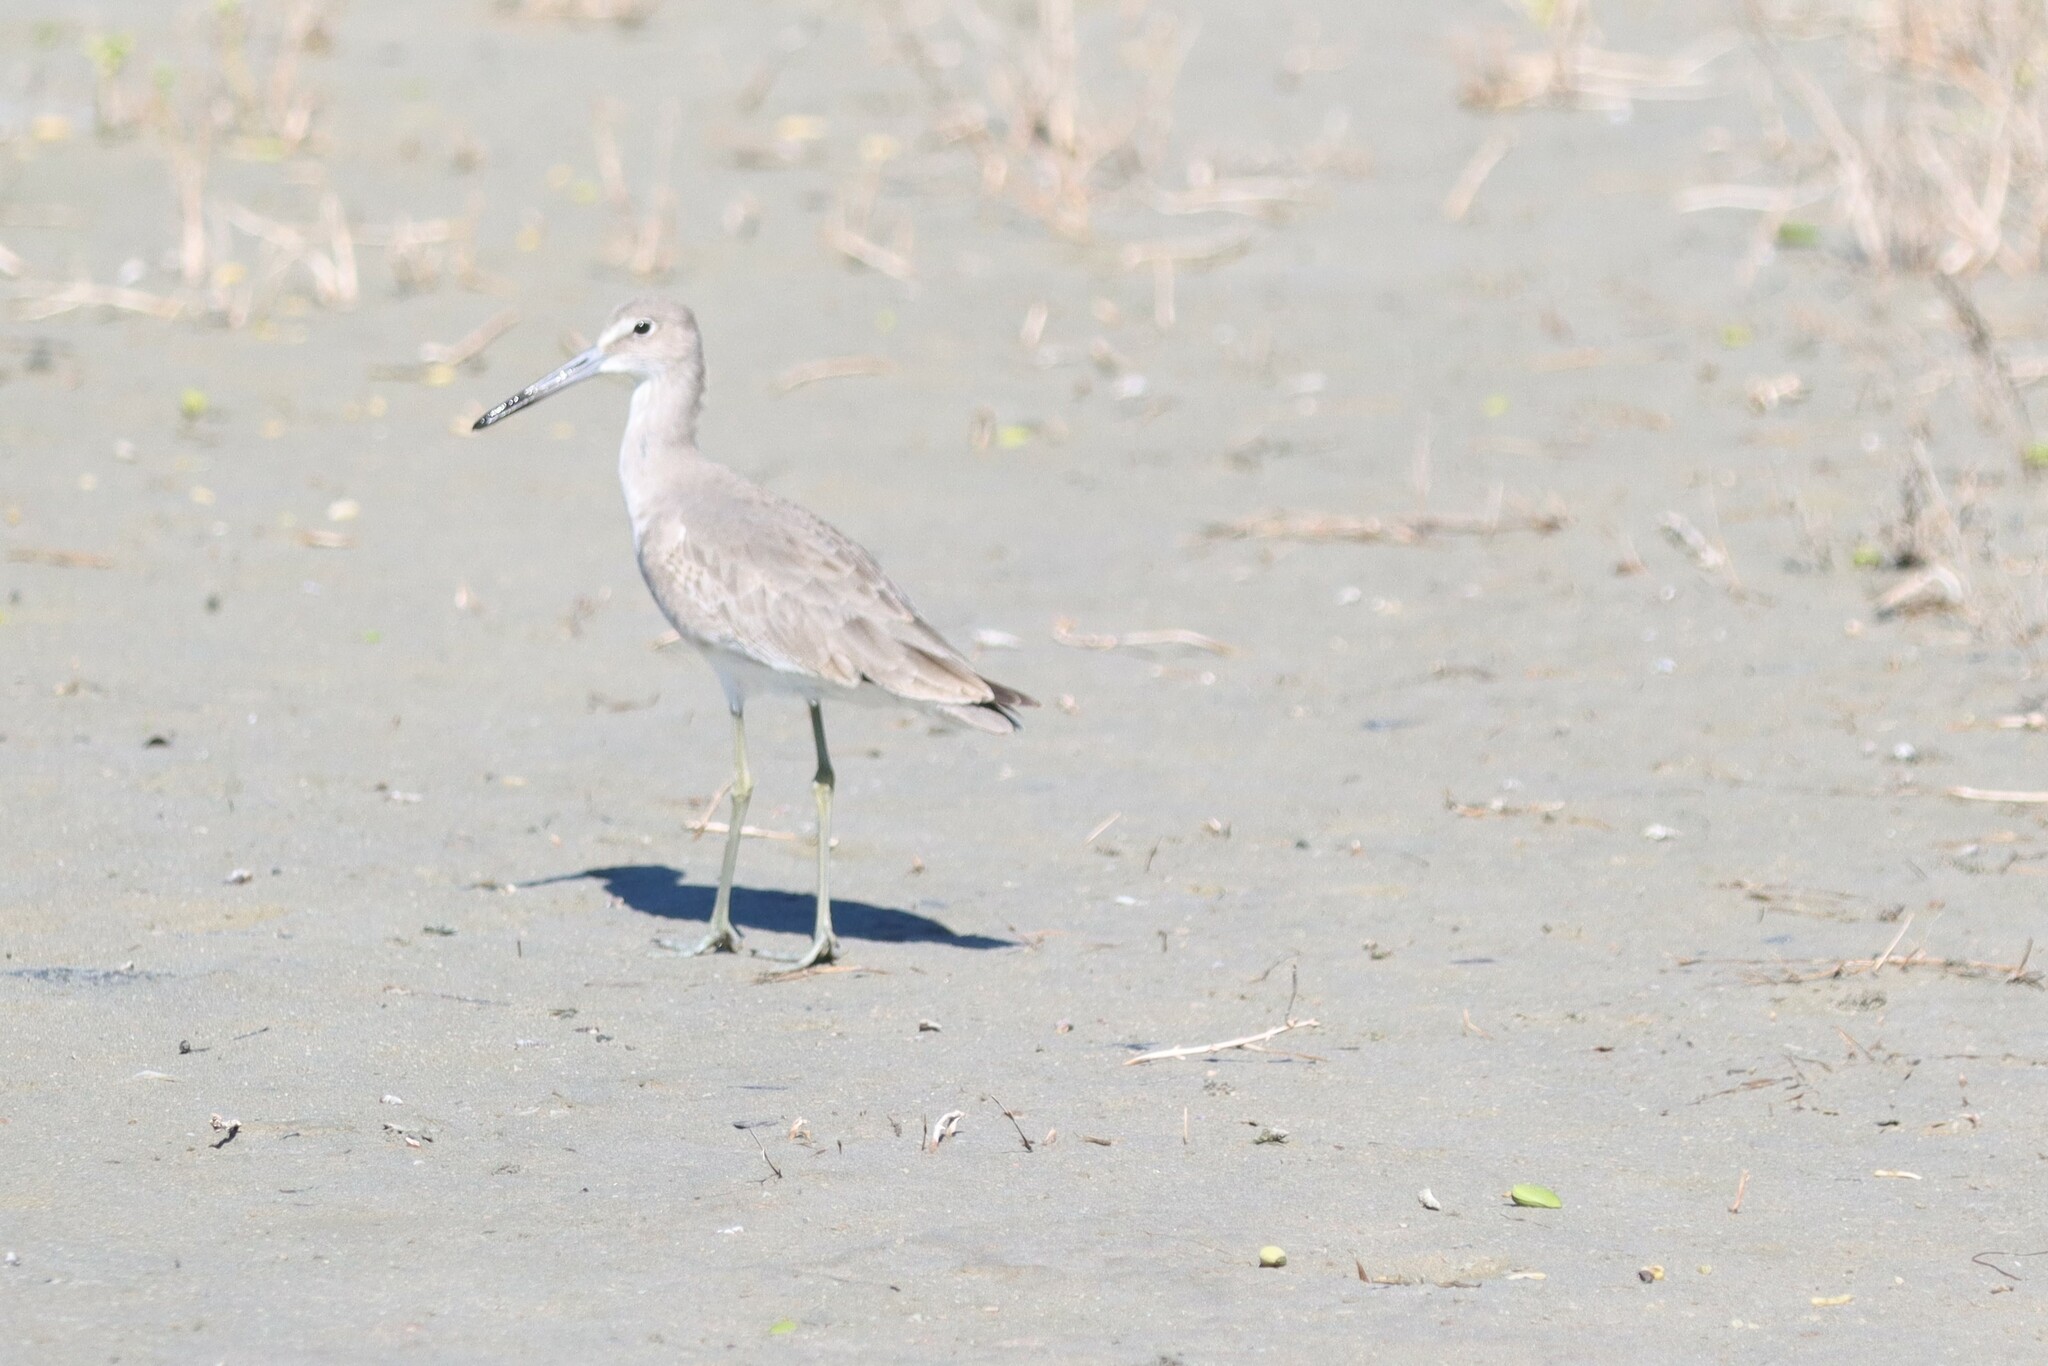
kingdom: Animalia
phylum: Chordata
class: Aves
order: Charadriiformes
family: Scolopacidae
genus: Tringa
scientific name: Tringa semipalmata
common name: Willet
